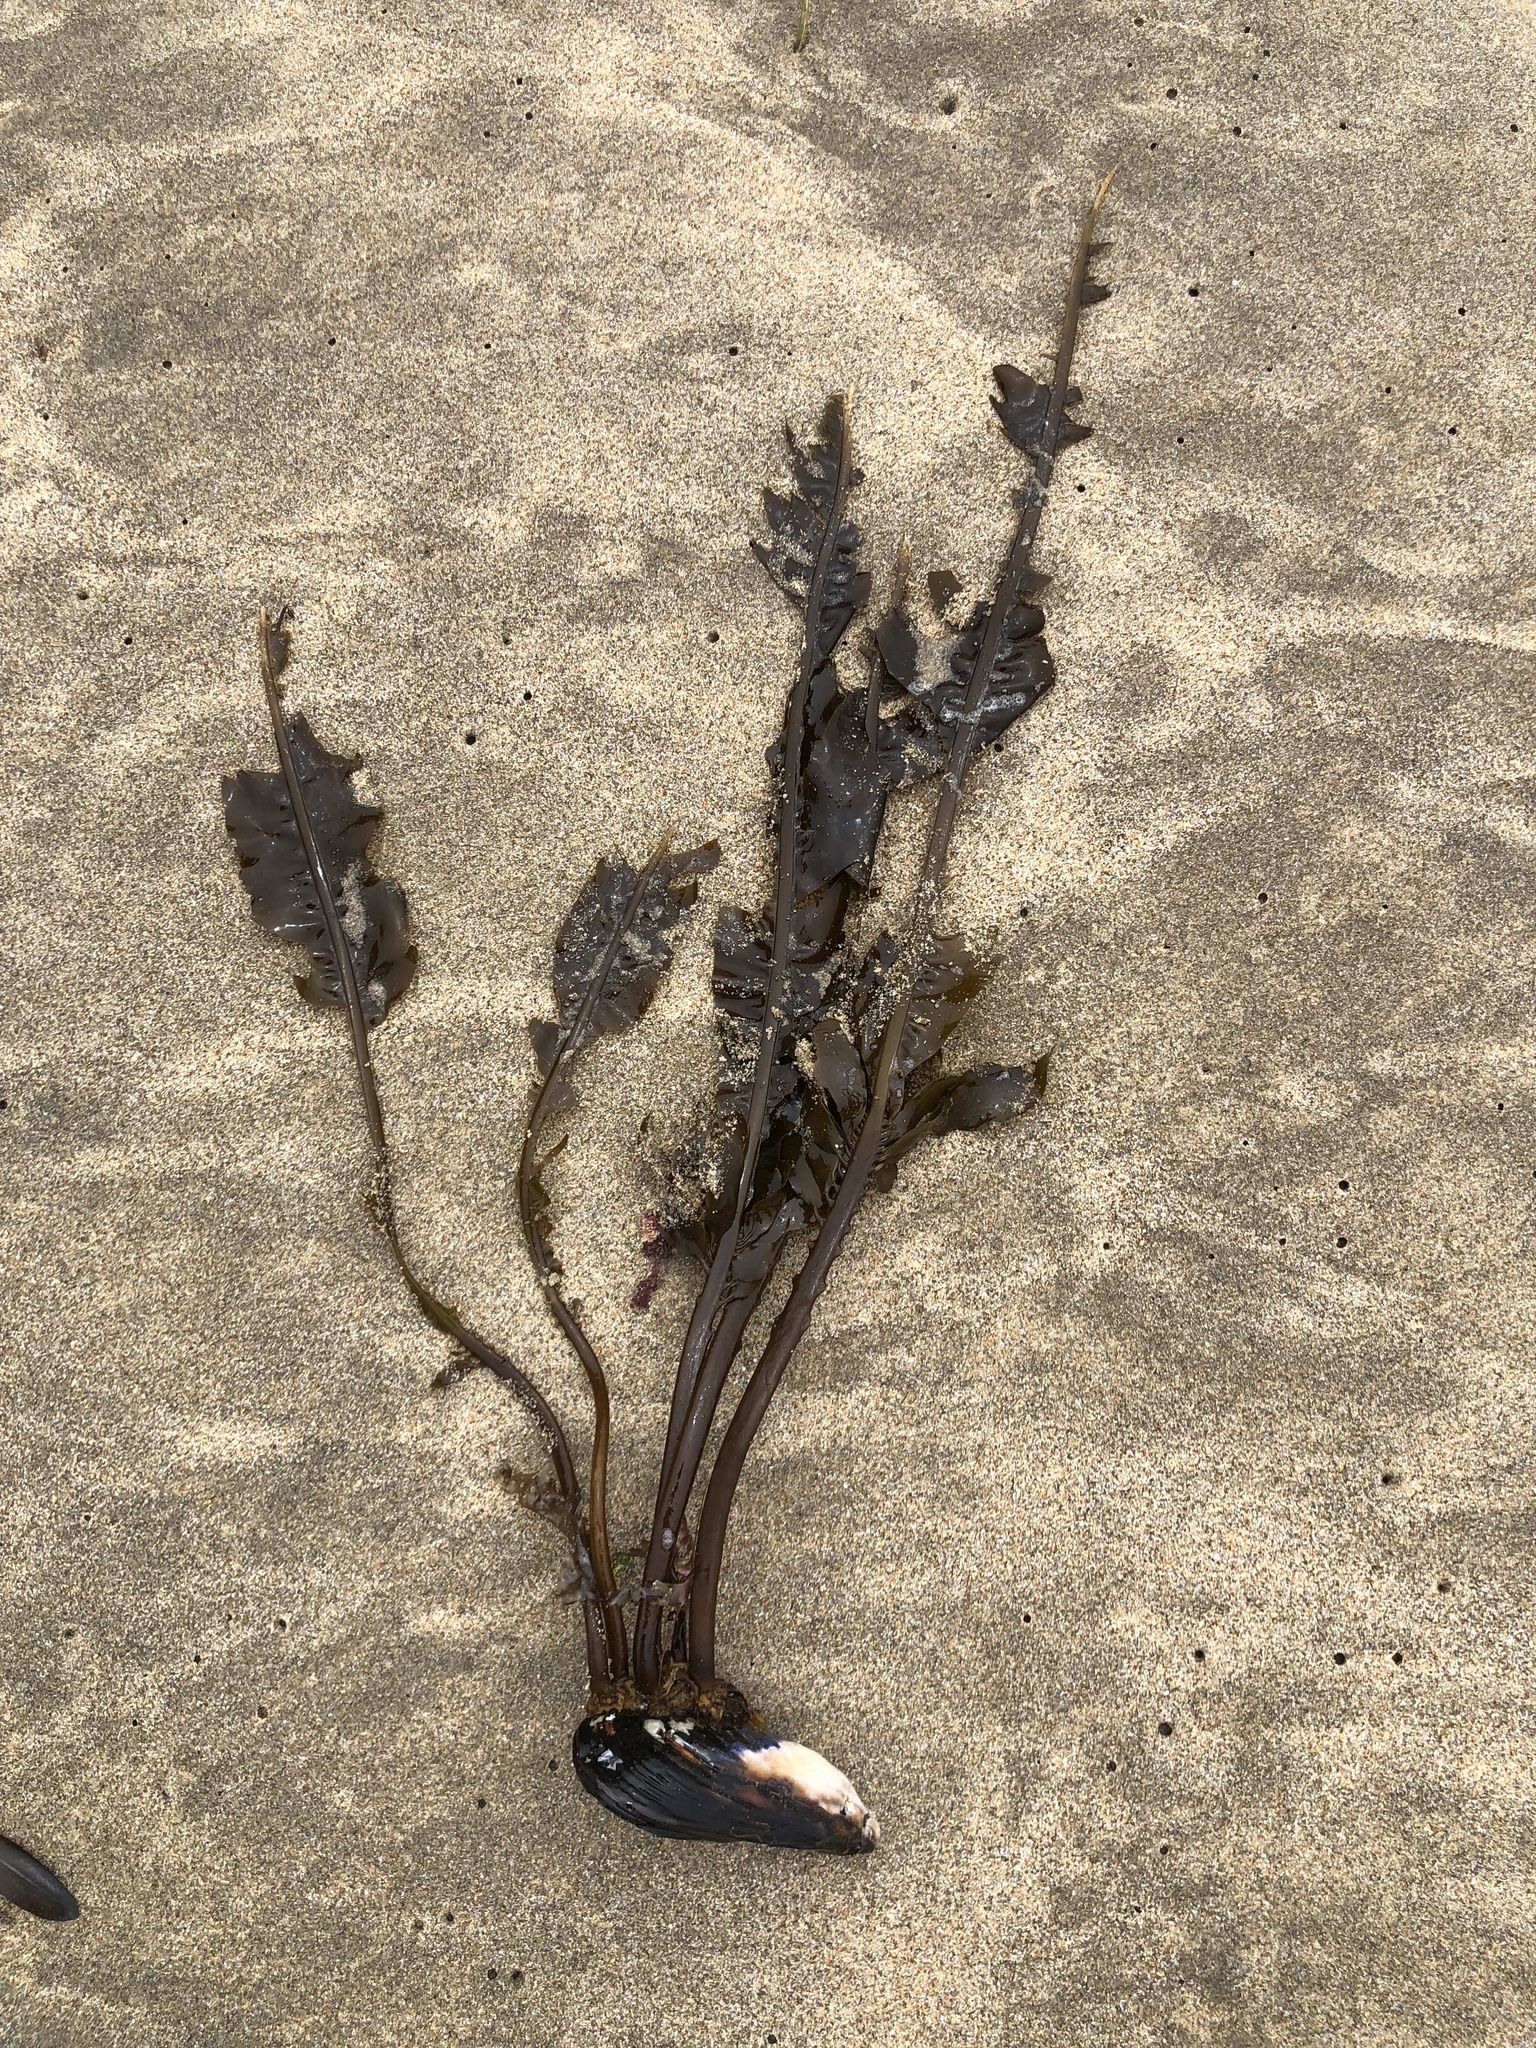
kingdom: Chromista
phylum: Ochrophyta
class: Phaeophyceae
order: Laminariales
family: Alariaceae
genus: Alaria
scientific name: Alaria marginata
